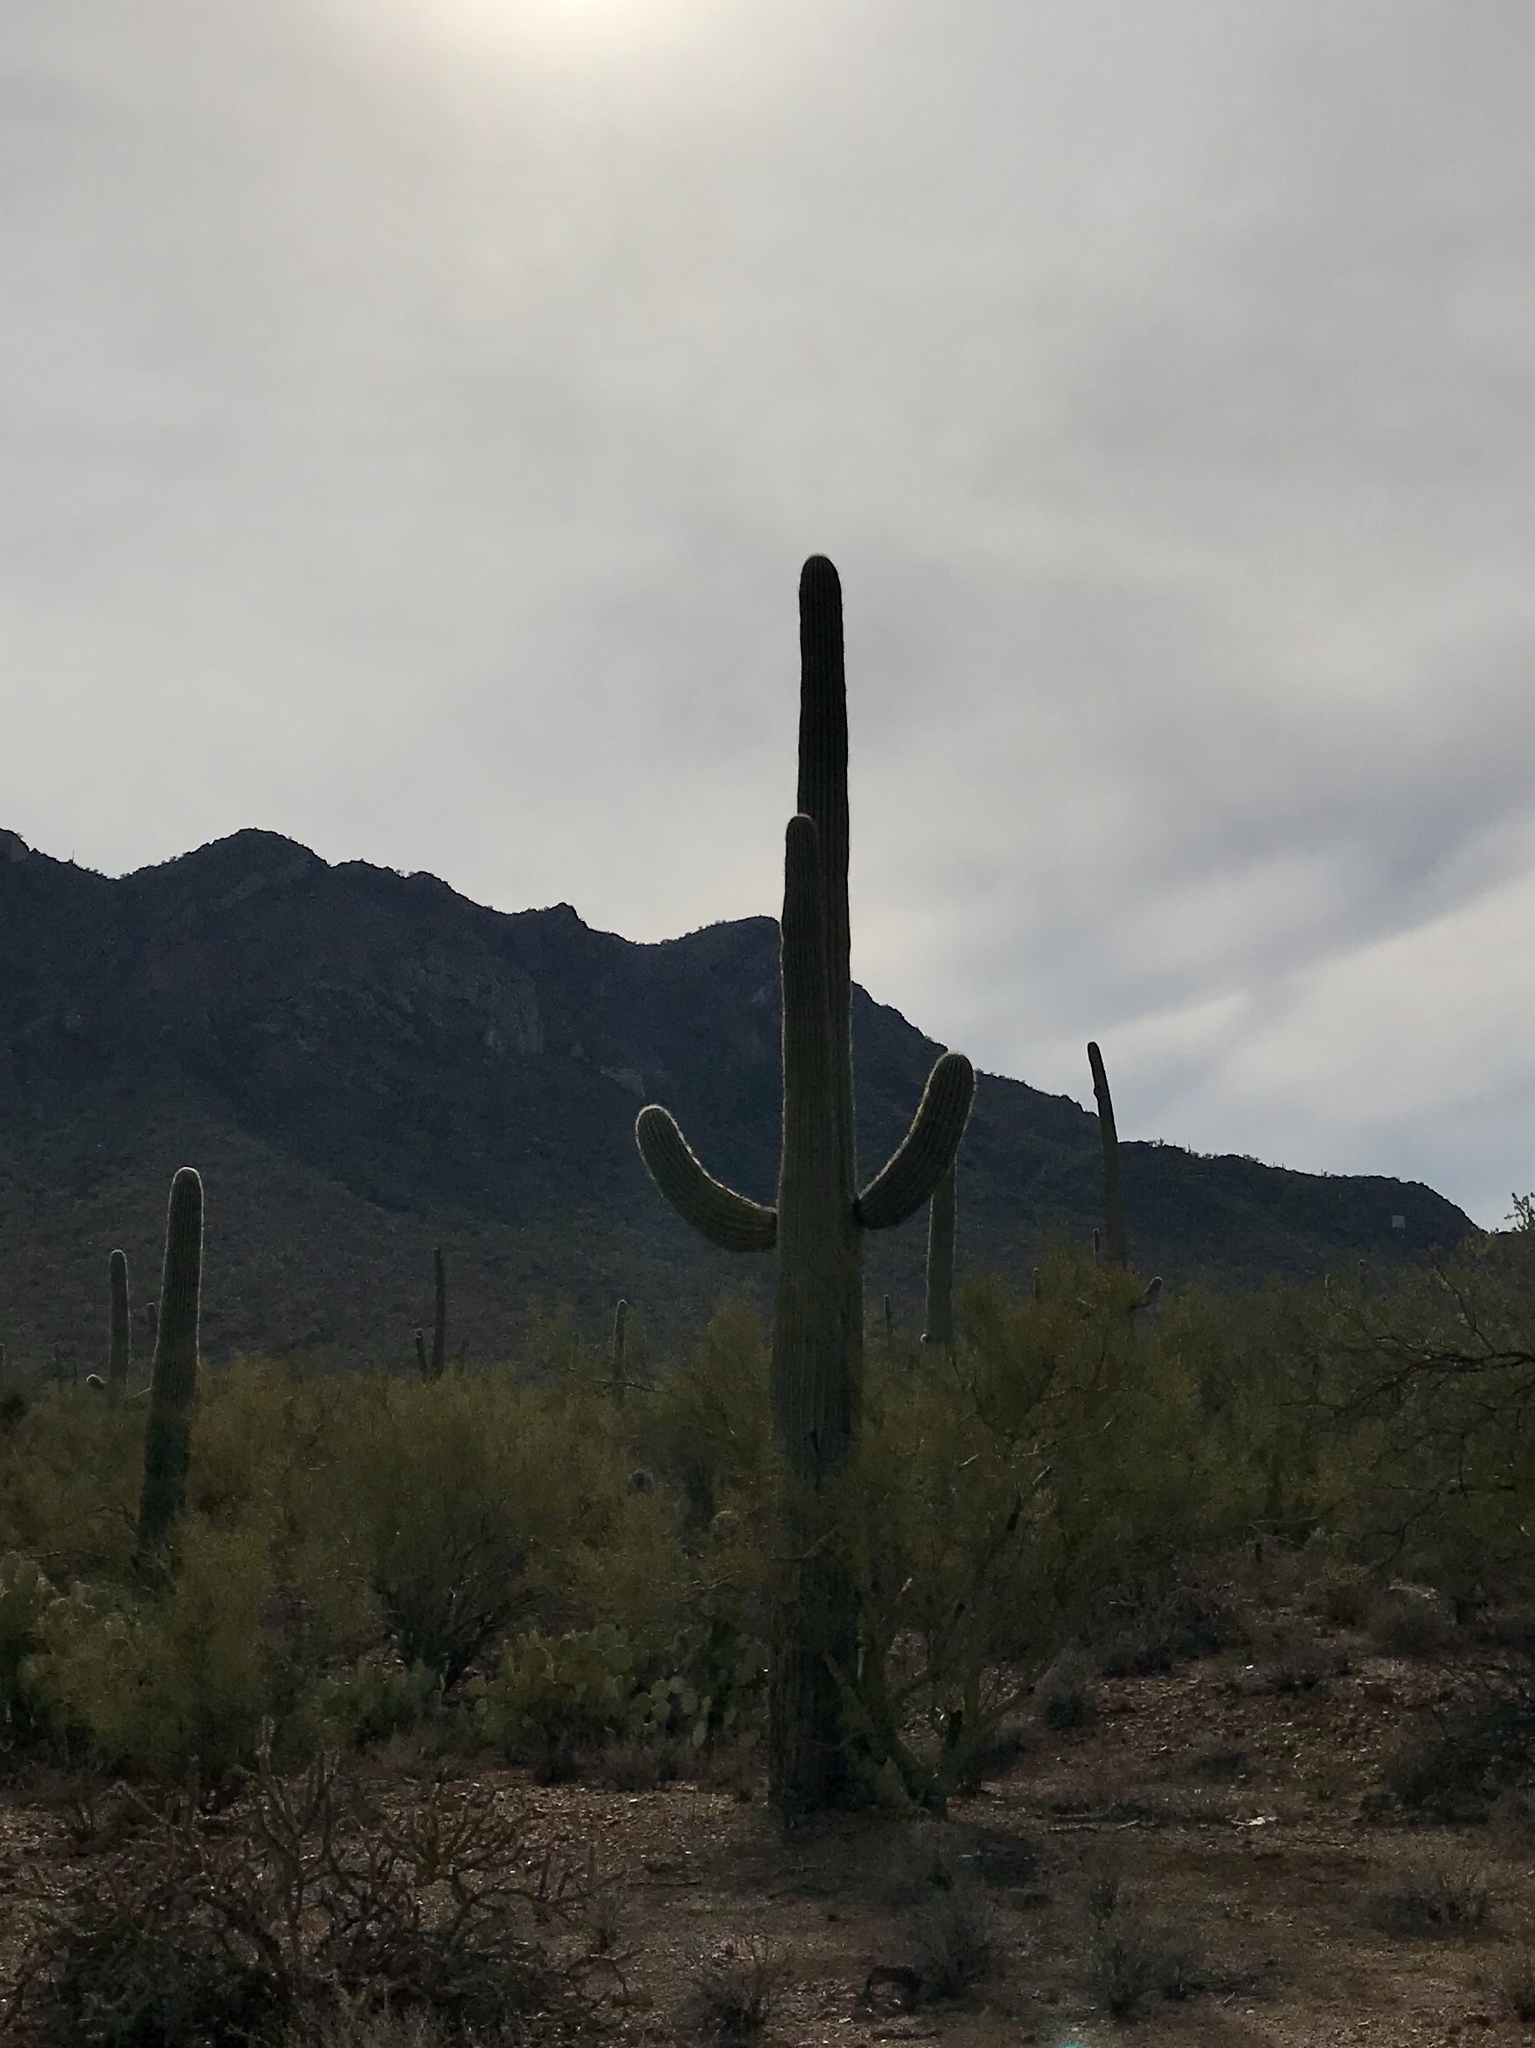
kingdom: Plantae
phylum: Tracheophyta
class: Magnoliopsida
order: Caryophyllales
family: Cactaceae
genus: Carnegiea
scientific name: Carnegiea gigantea
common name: Saguaro
